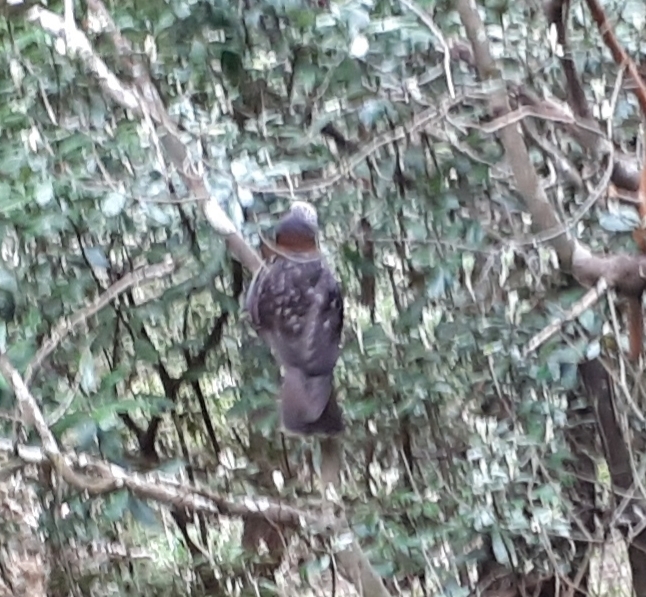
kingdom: Animalia
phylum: Chordata
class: Aves
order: Psittaciformes
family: Psittacidae
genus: Nestor
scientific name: Nestor meridionalis
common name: New zealand kaka
